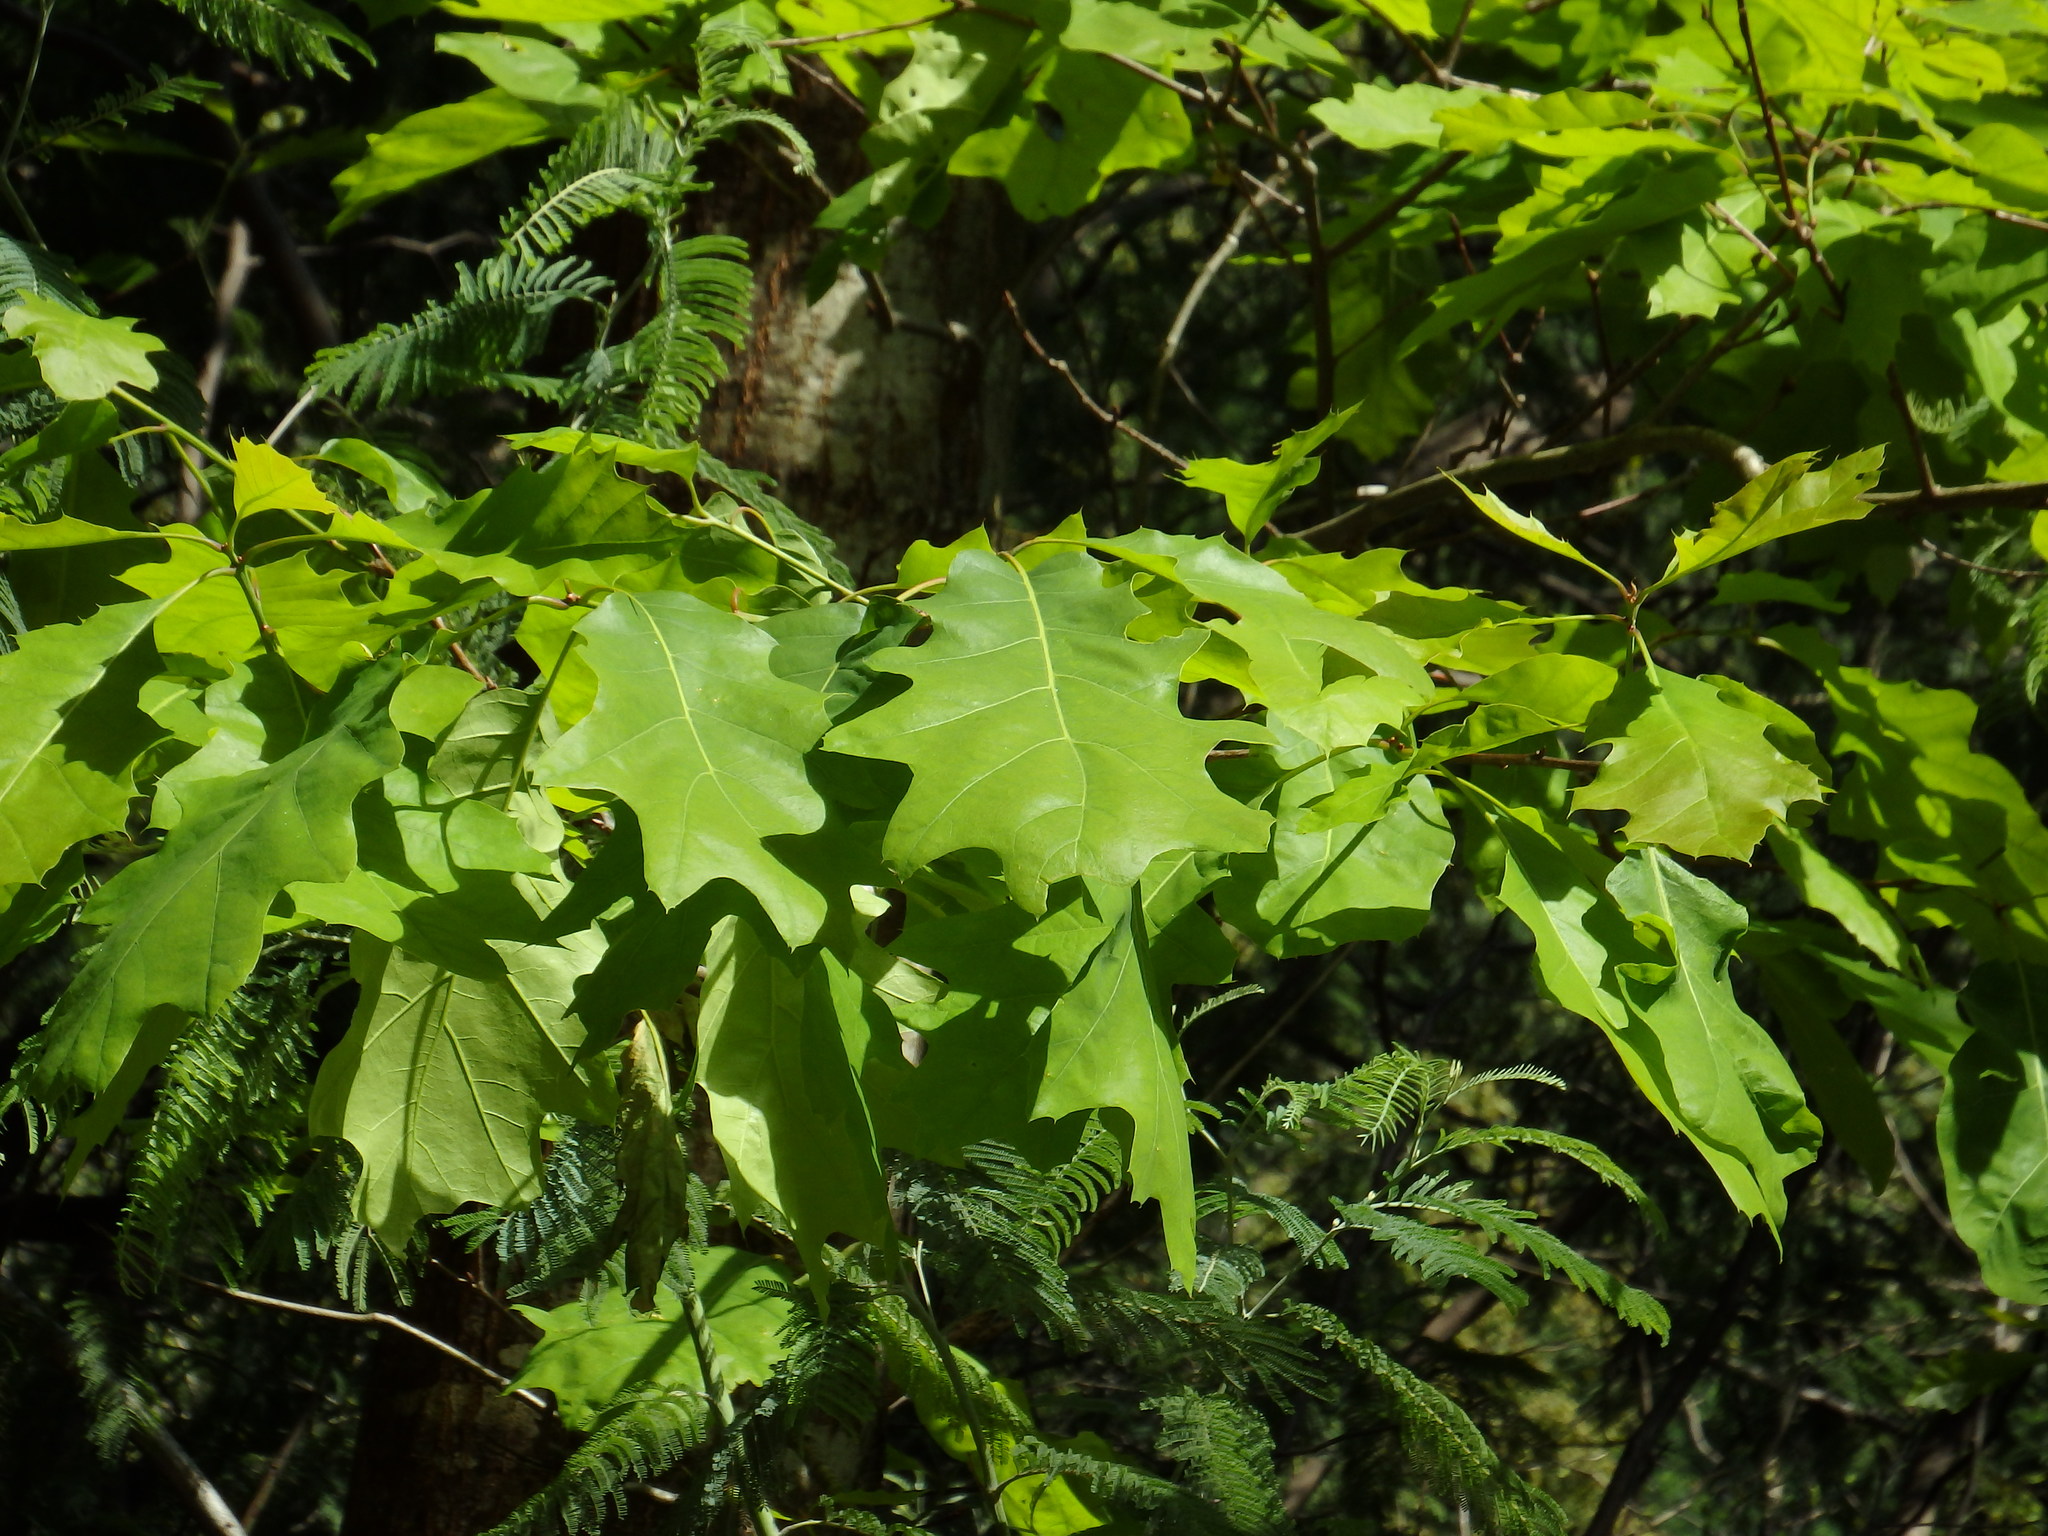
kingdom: Plantae
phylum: Tracheophyta
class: Magnoliopsida
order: Fagales
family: Fagaceae
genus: Quercus
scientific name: Quercus rubra
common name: Red oak
